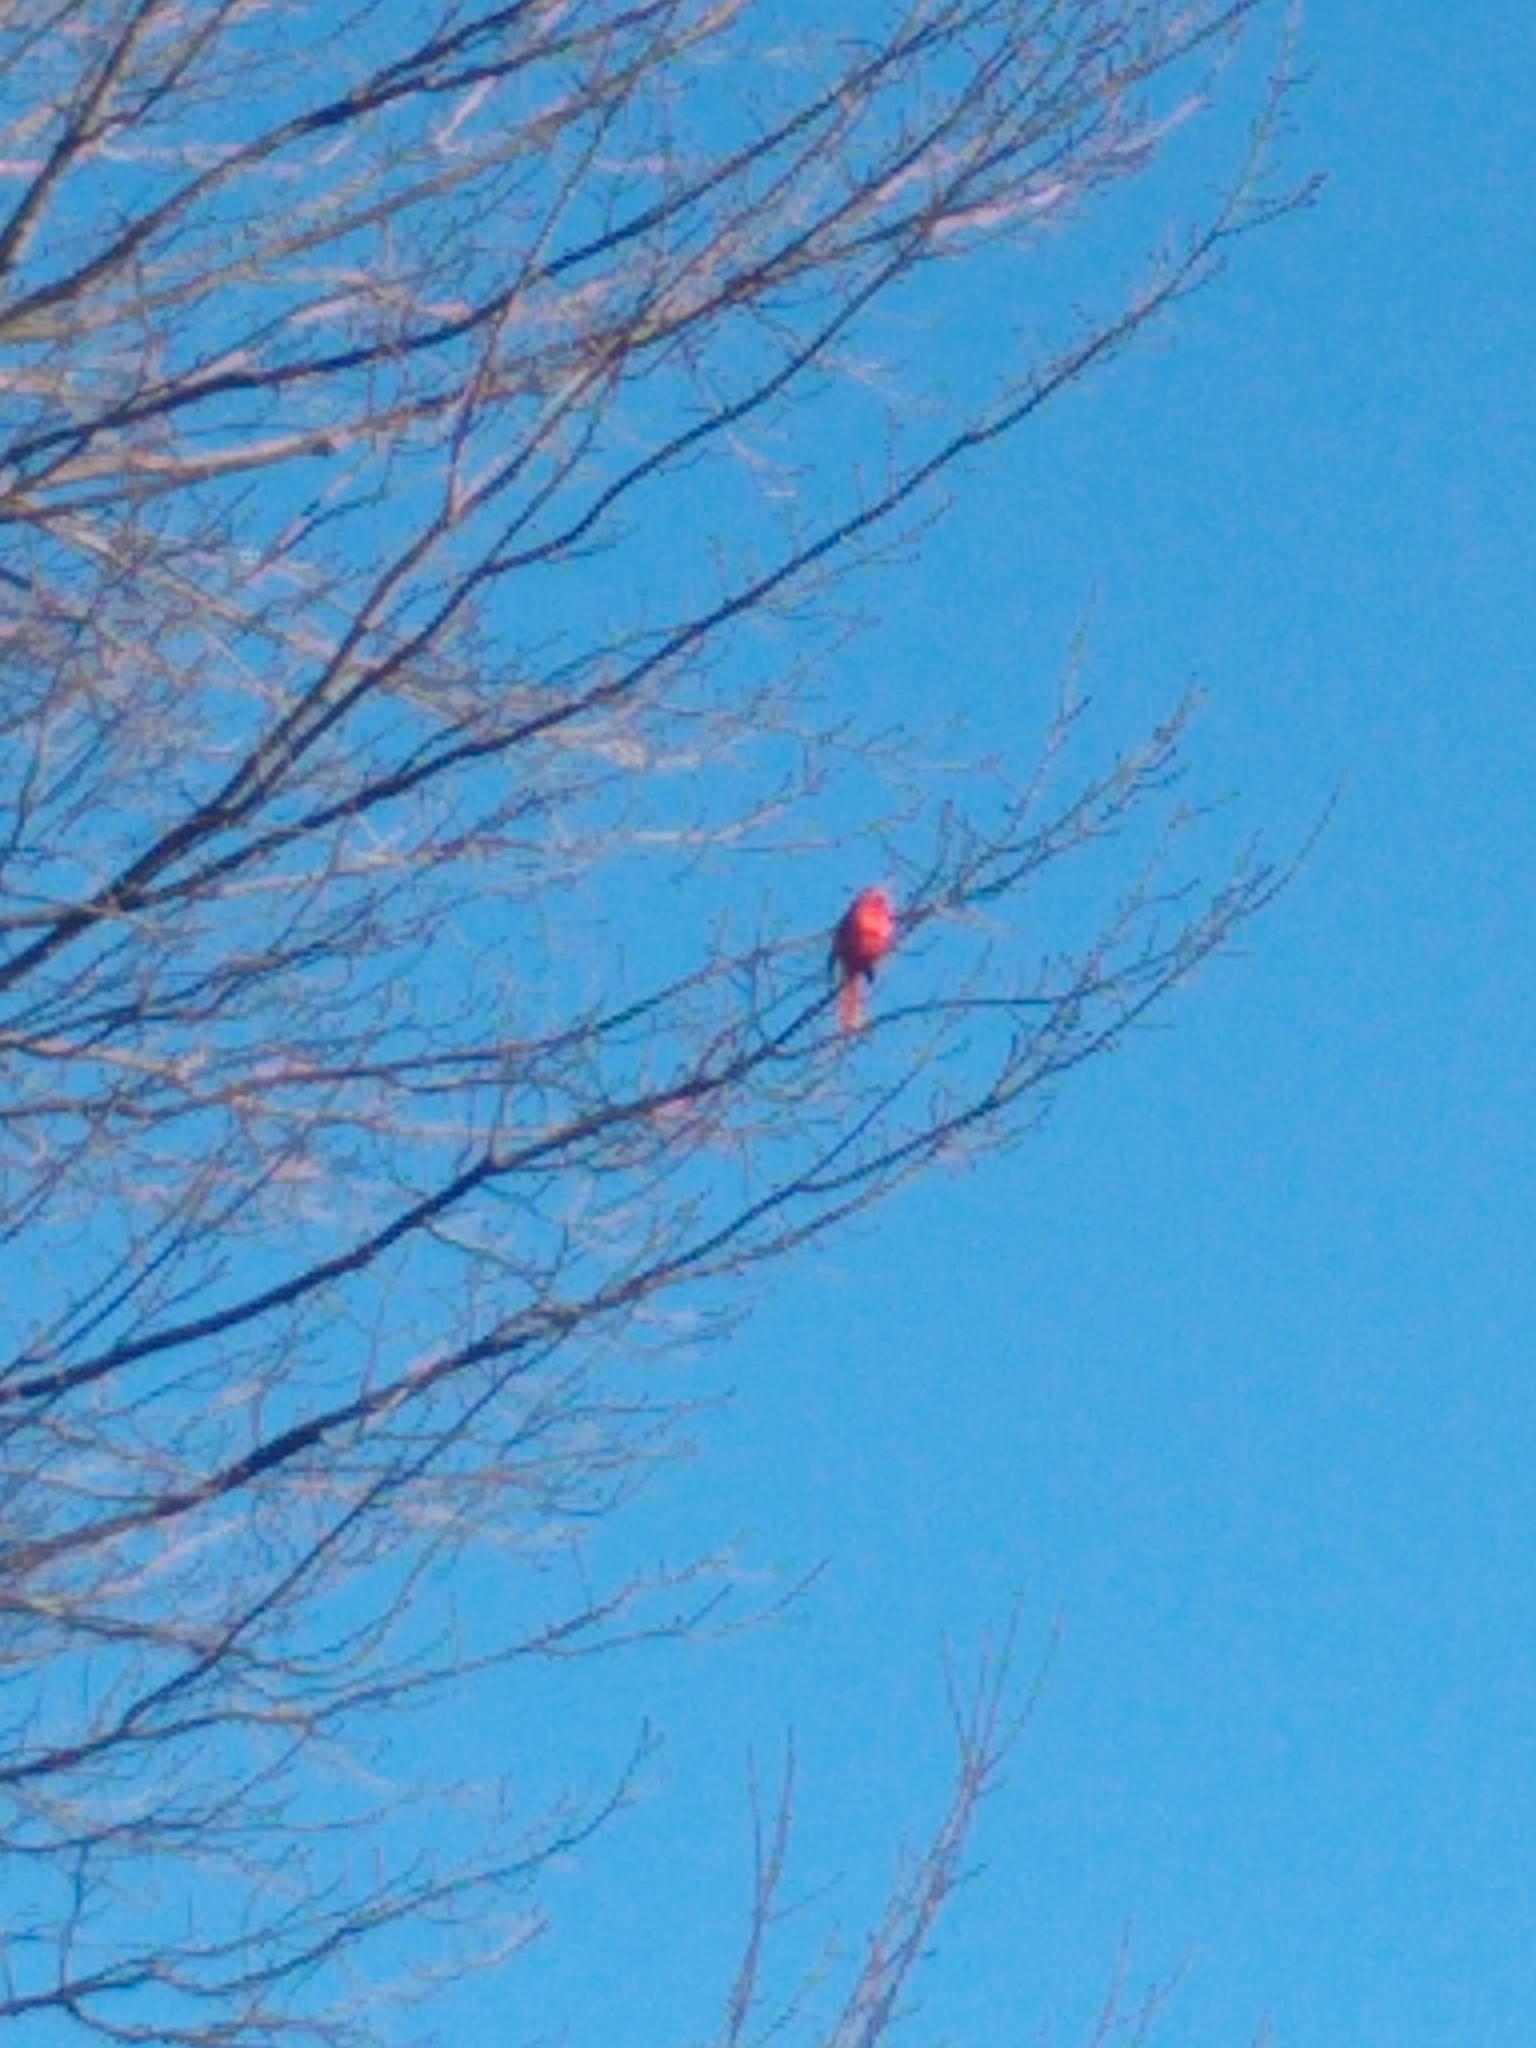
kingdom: Animalia
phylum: Chordata
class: Aves
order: Passeriformes
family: Cardinalidae
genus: Cardinalis
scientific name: Cardinalis cardinalis
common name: Northern cardinal
